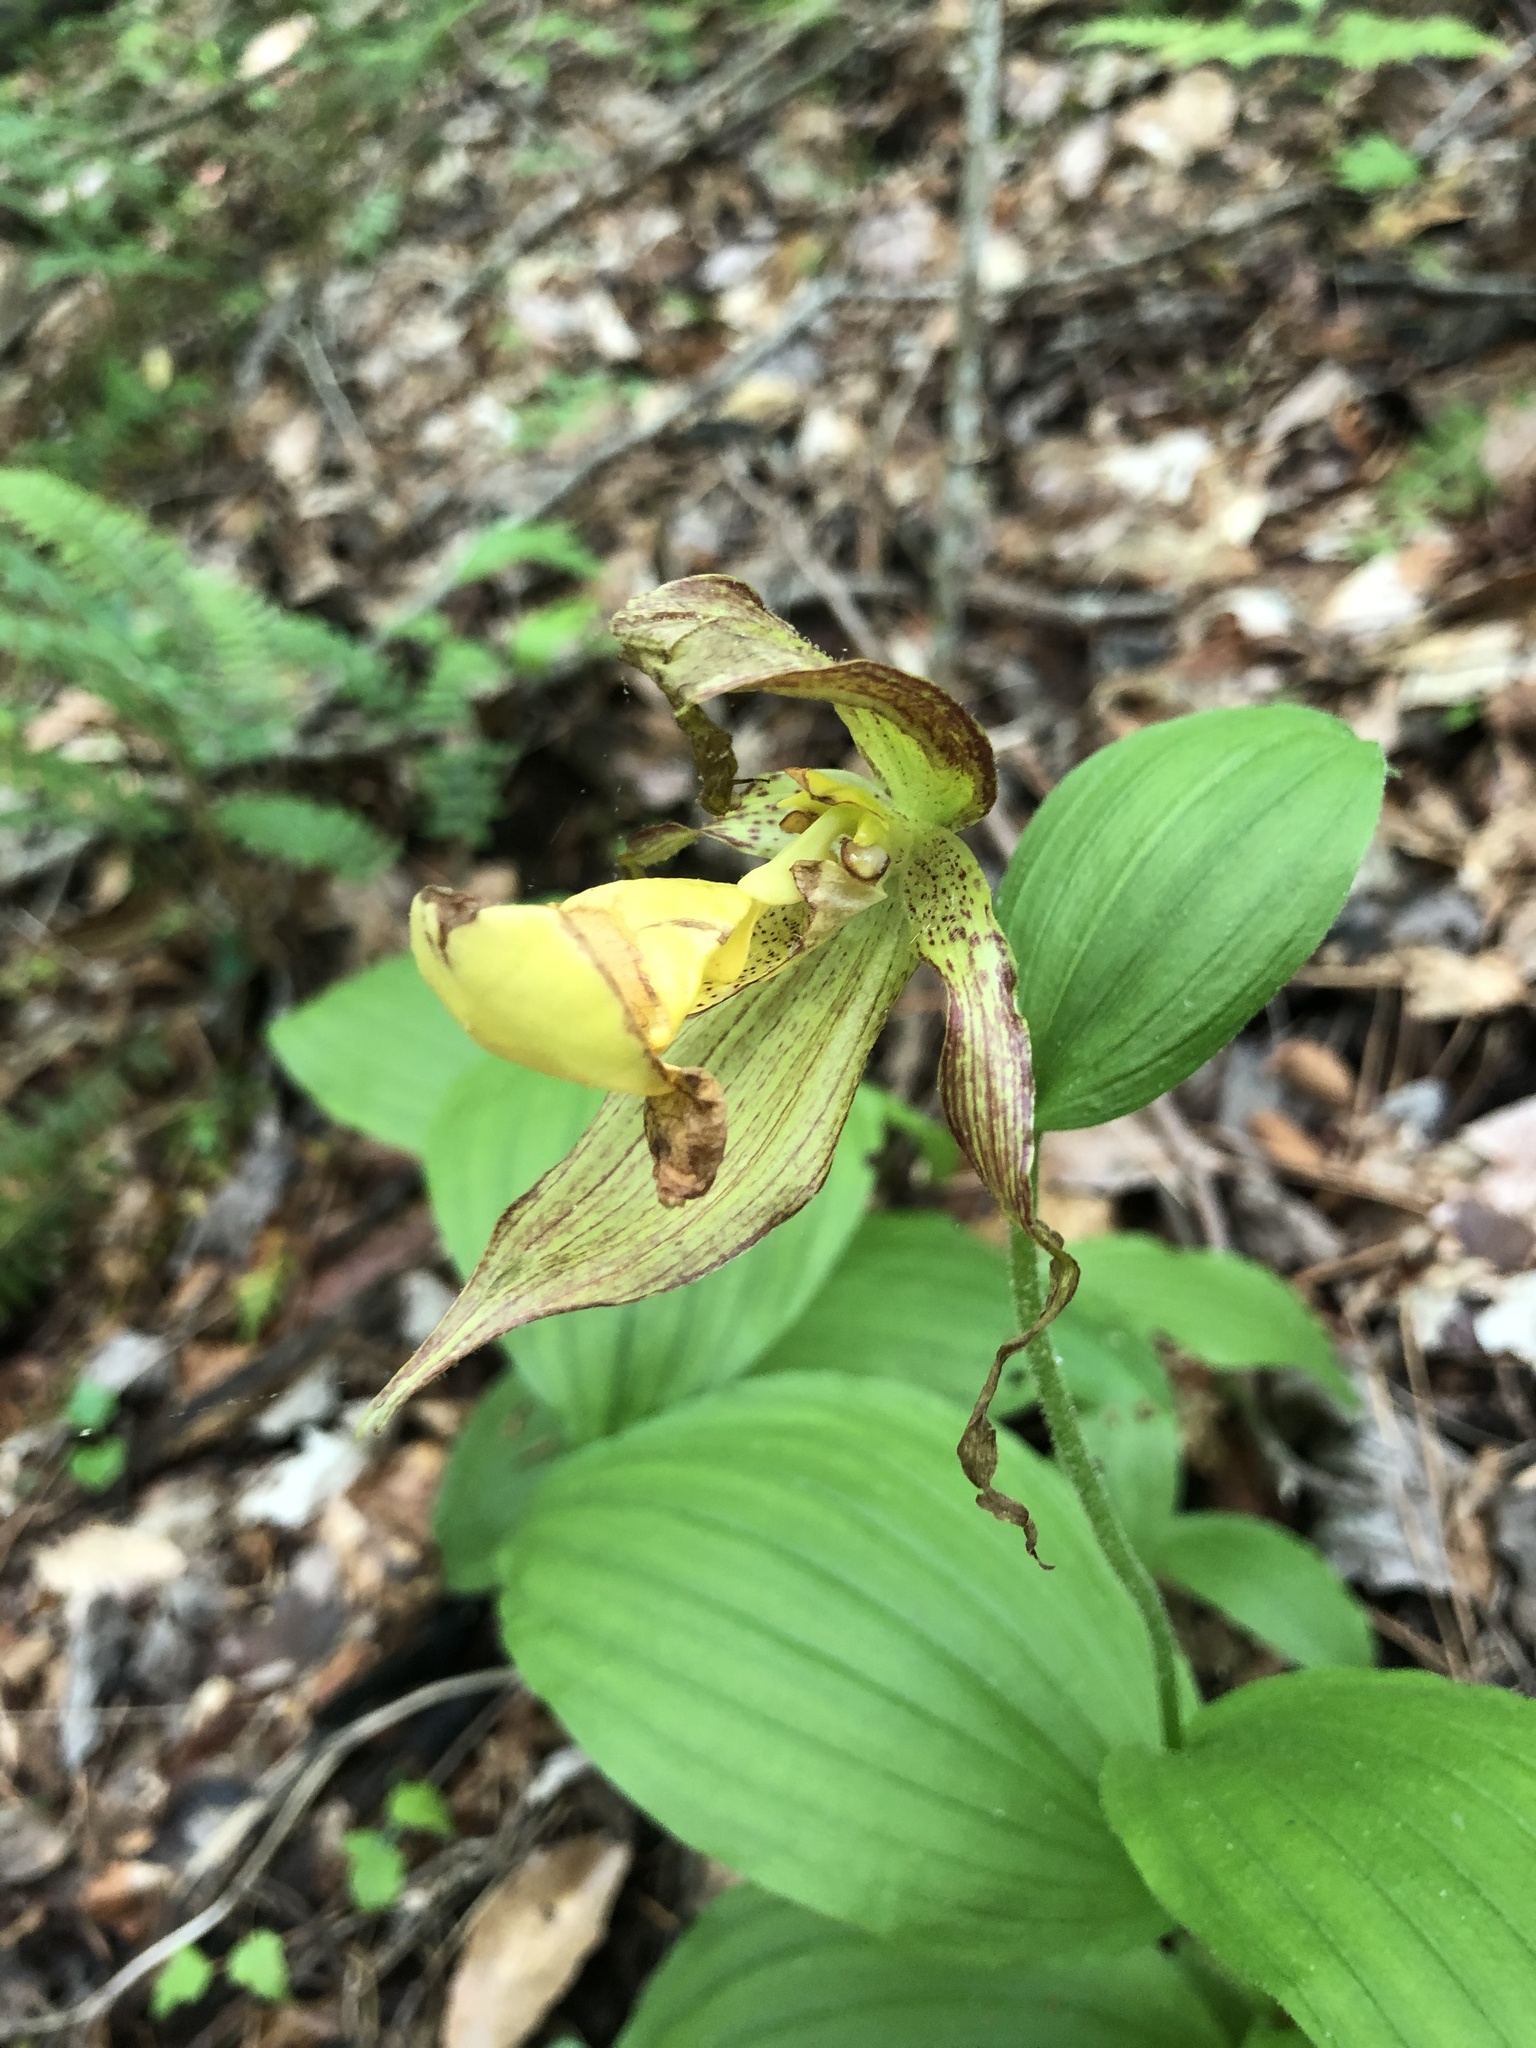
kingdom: Plantae
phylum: Tracheophyta
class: Liliopsida
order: Asparagales
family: Orchidaceae
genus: Cypripedium
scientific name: Cypripedium parviflorum
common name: American yellow lady's-slipper
